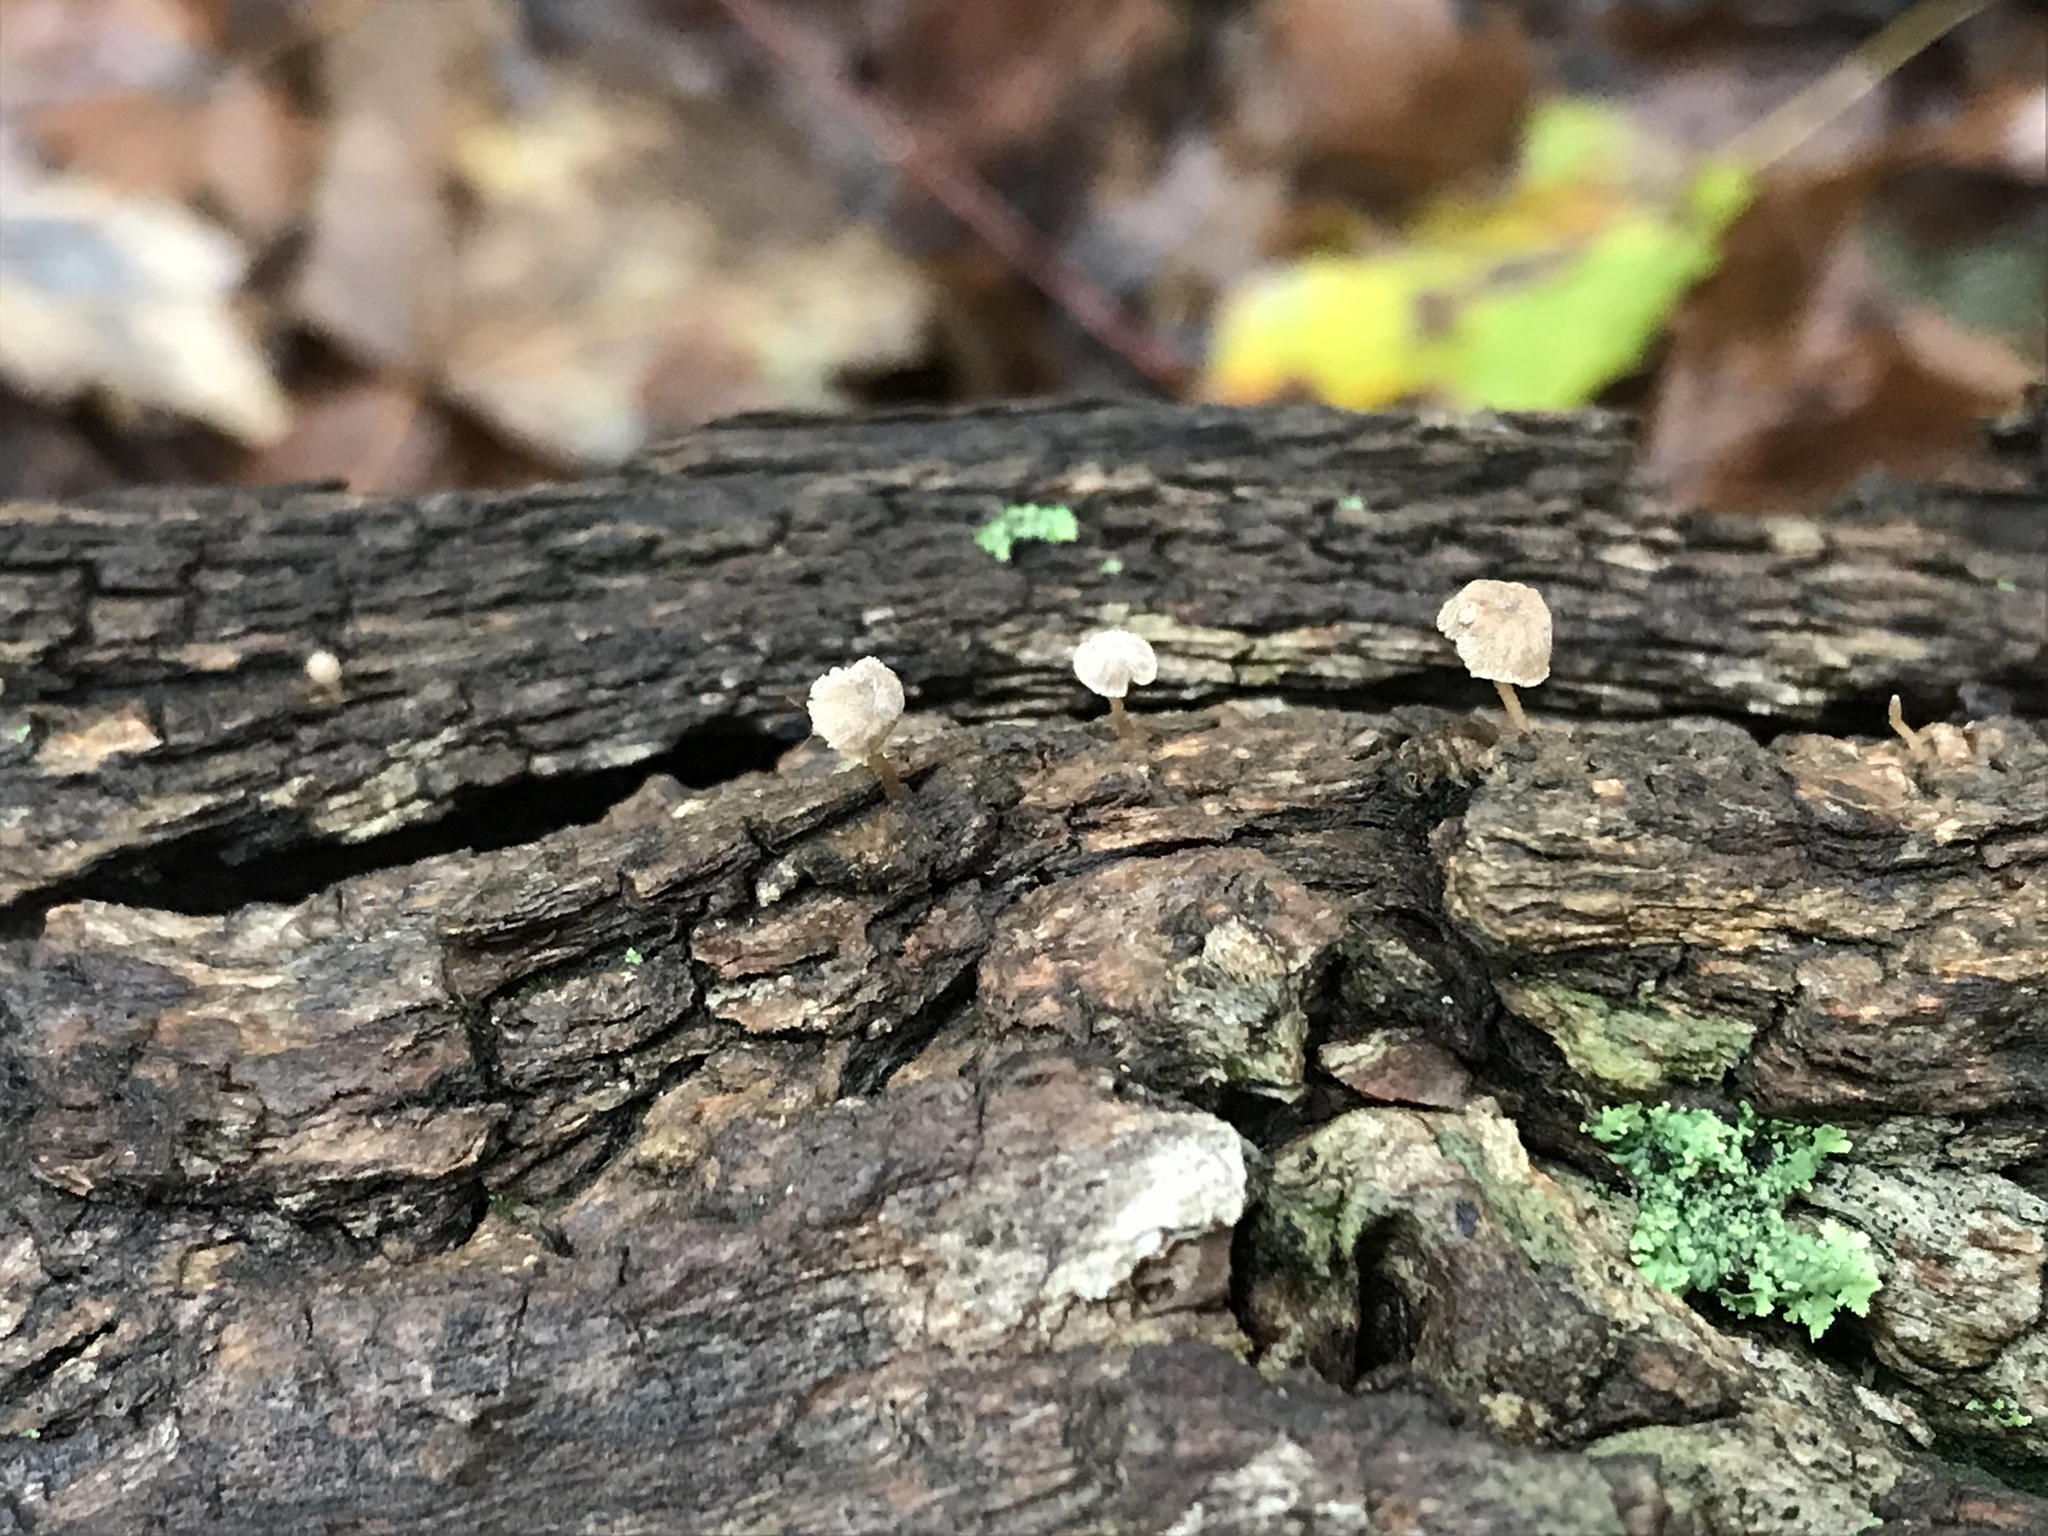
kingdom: Fungi
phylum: Basidiomycota
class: Agaricomycetes
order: Agaricales
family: Mycenaceae
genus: Mycena
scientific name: Mycena corticola
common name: Bark mycena
